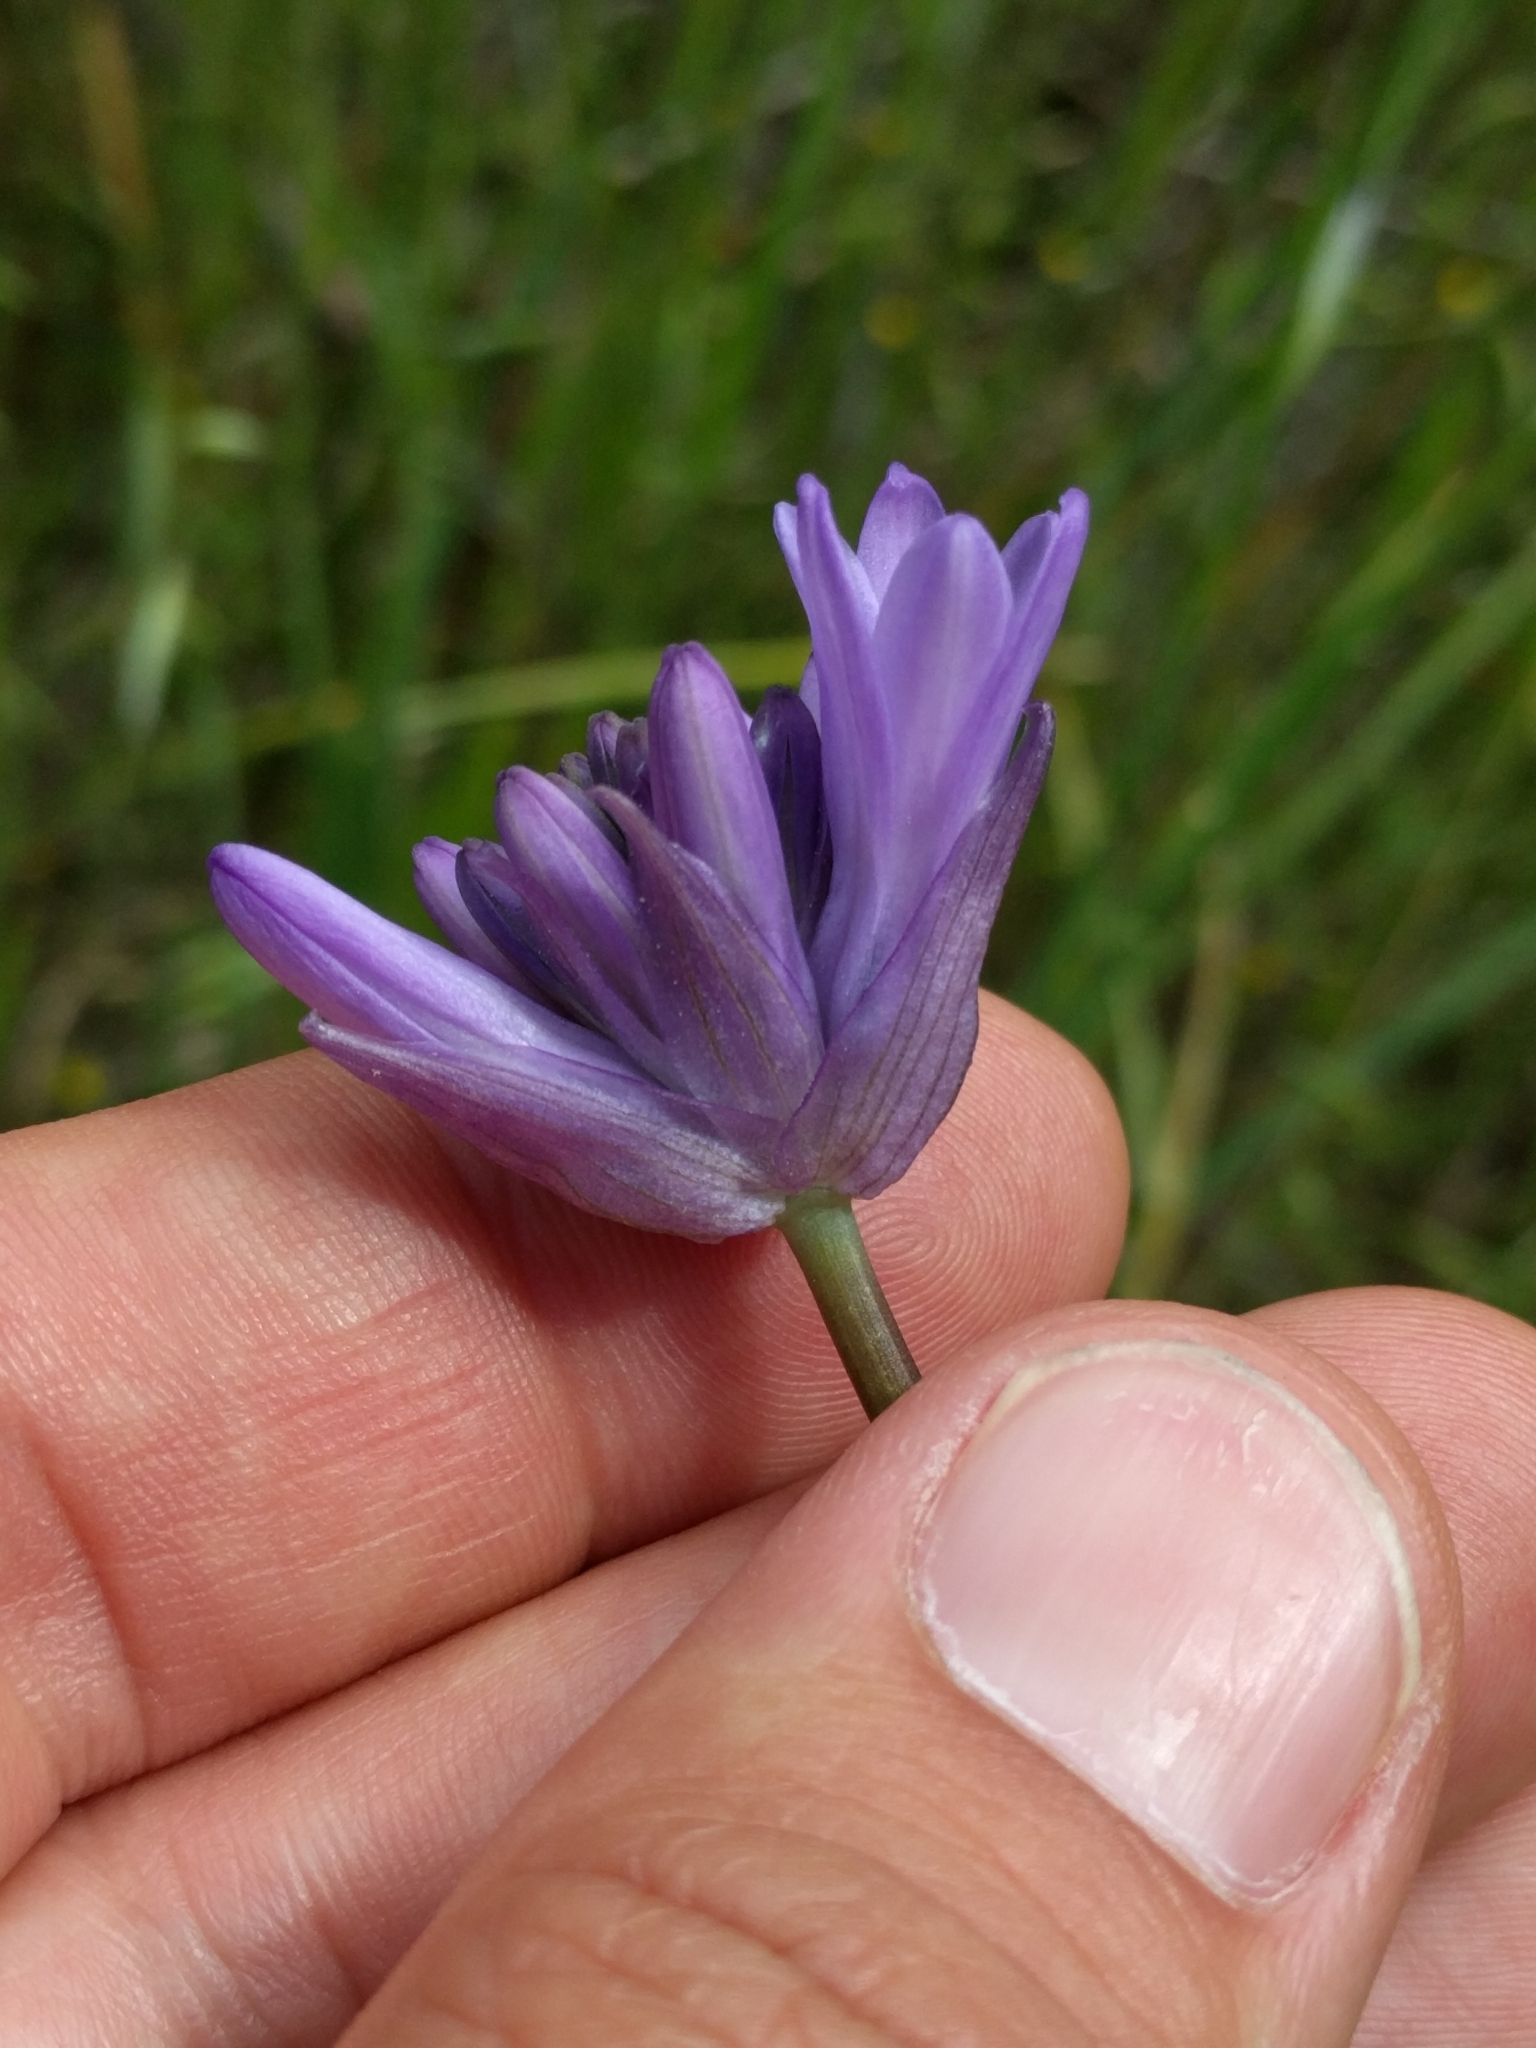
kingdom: Plantae
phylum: Tracheophyta
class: Liliopsida
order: Asparagales
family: Asparagaceae
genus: Dichelostemma
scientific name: Dichelostemma congestum
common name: Fork-tooth ookow
